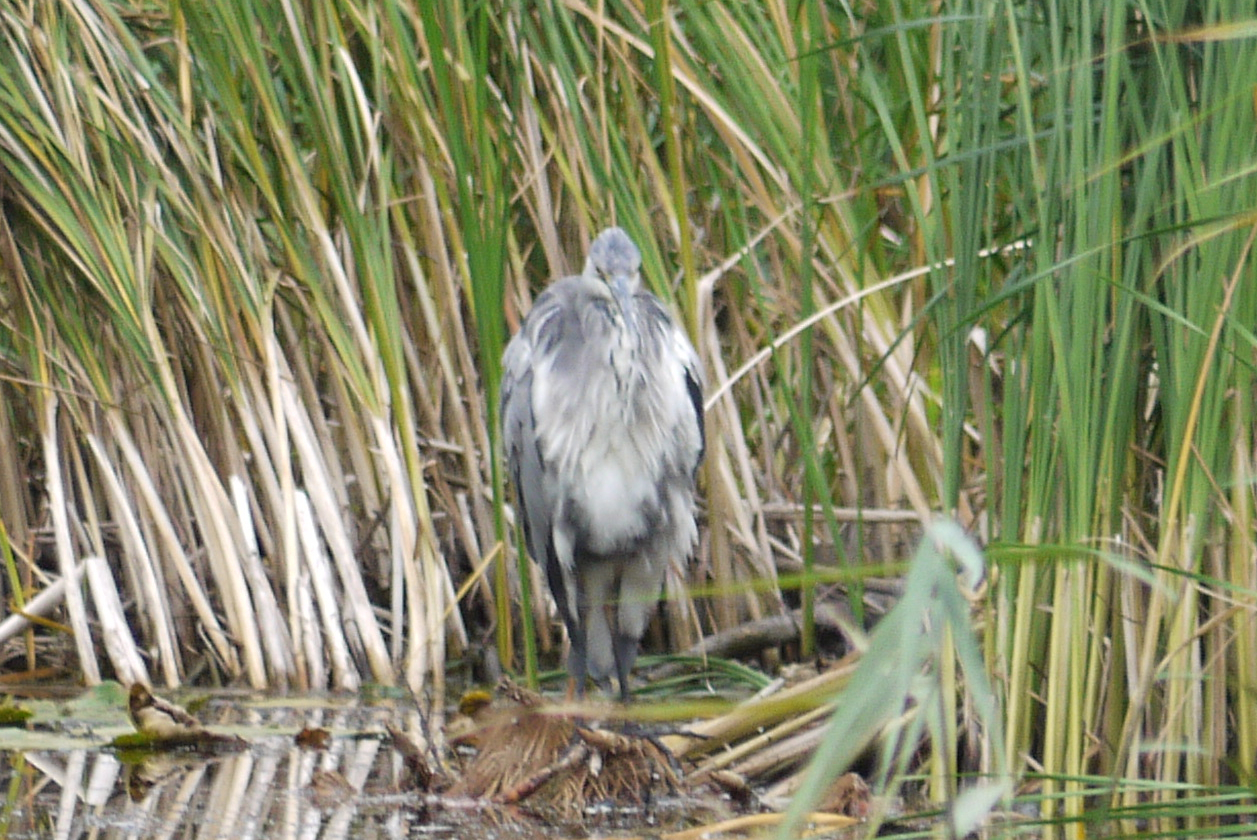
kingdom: Animalia
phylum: Chordata
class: Aves
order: Pelecaniformes
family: Ardeidae
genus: Ardea
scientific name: Ardea cinerea
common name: Grey heron
